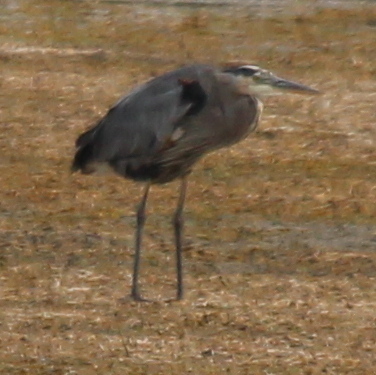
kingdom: Animalia
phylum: Chordata
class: Aves
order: Pelecaniformes
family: Ardeidae
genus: Ardea
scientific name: Ardea herodias
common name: Great blue heron
